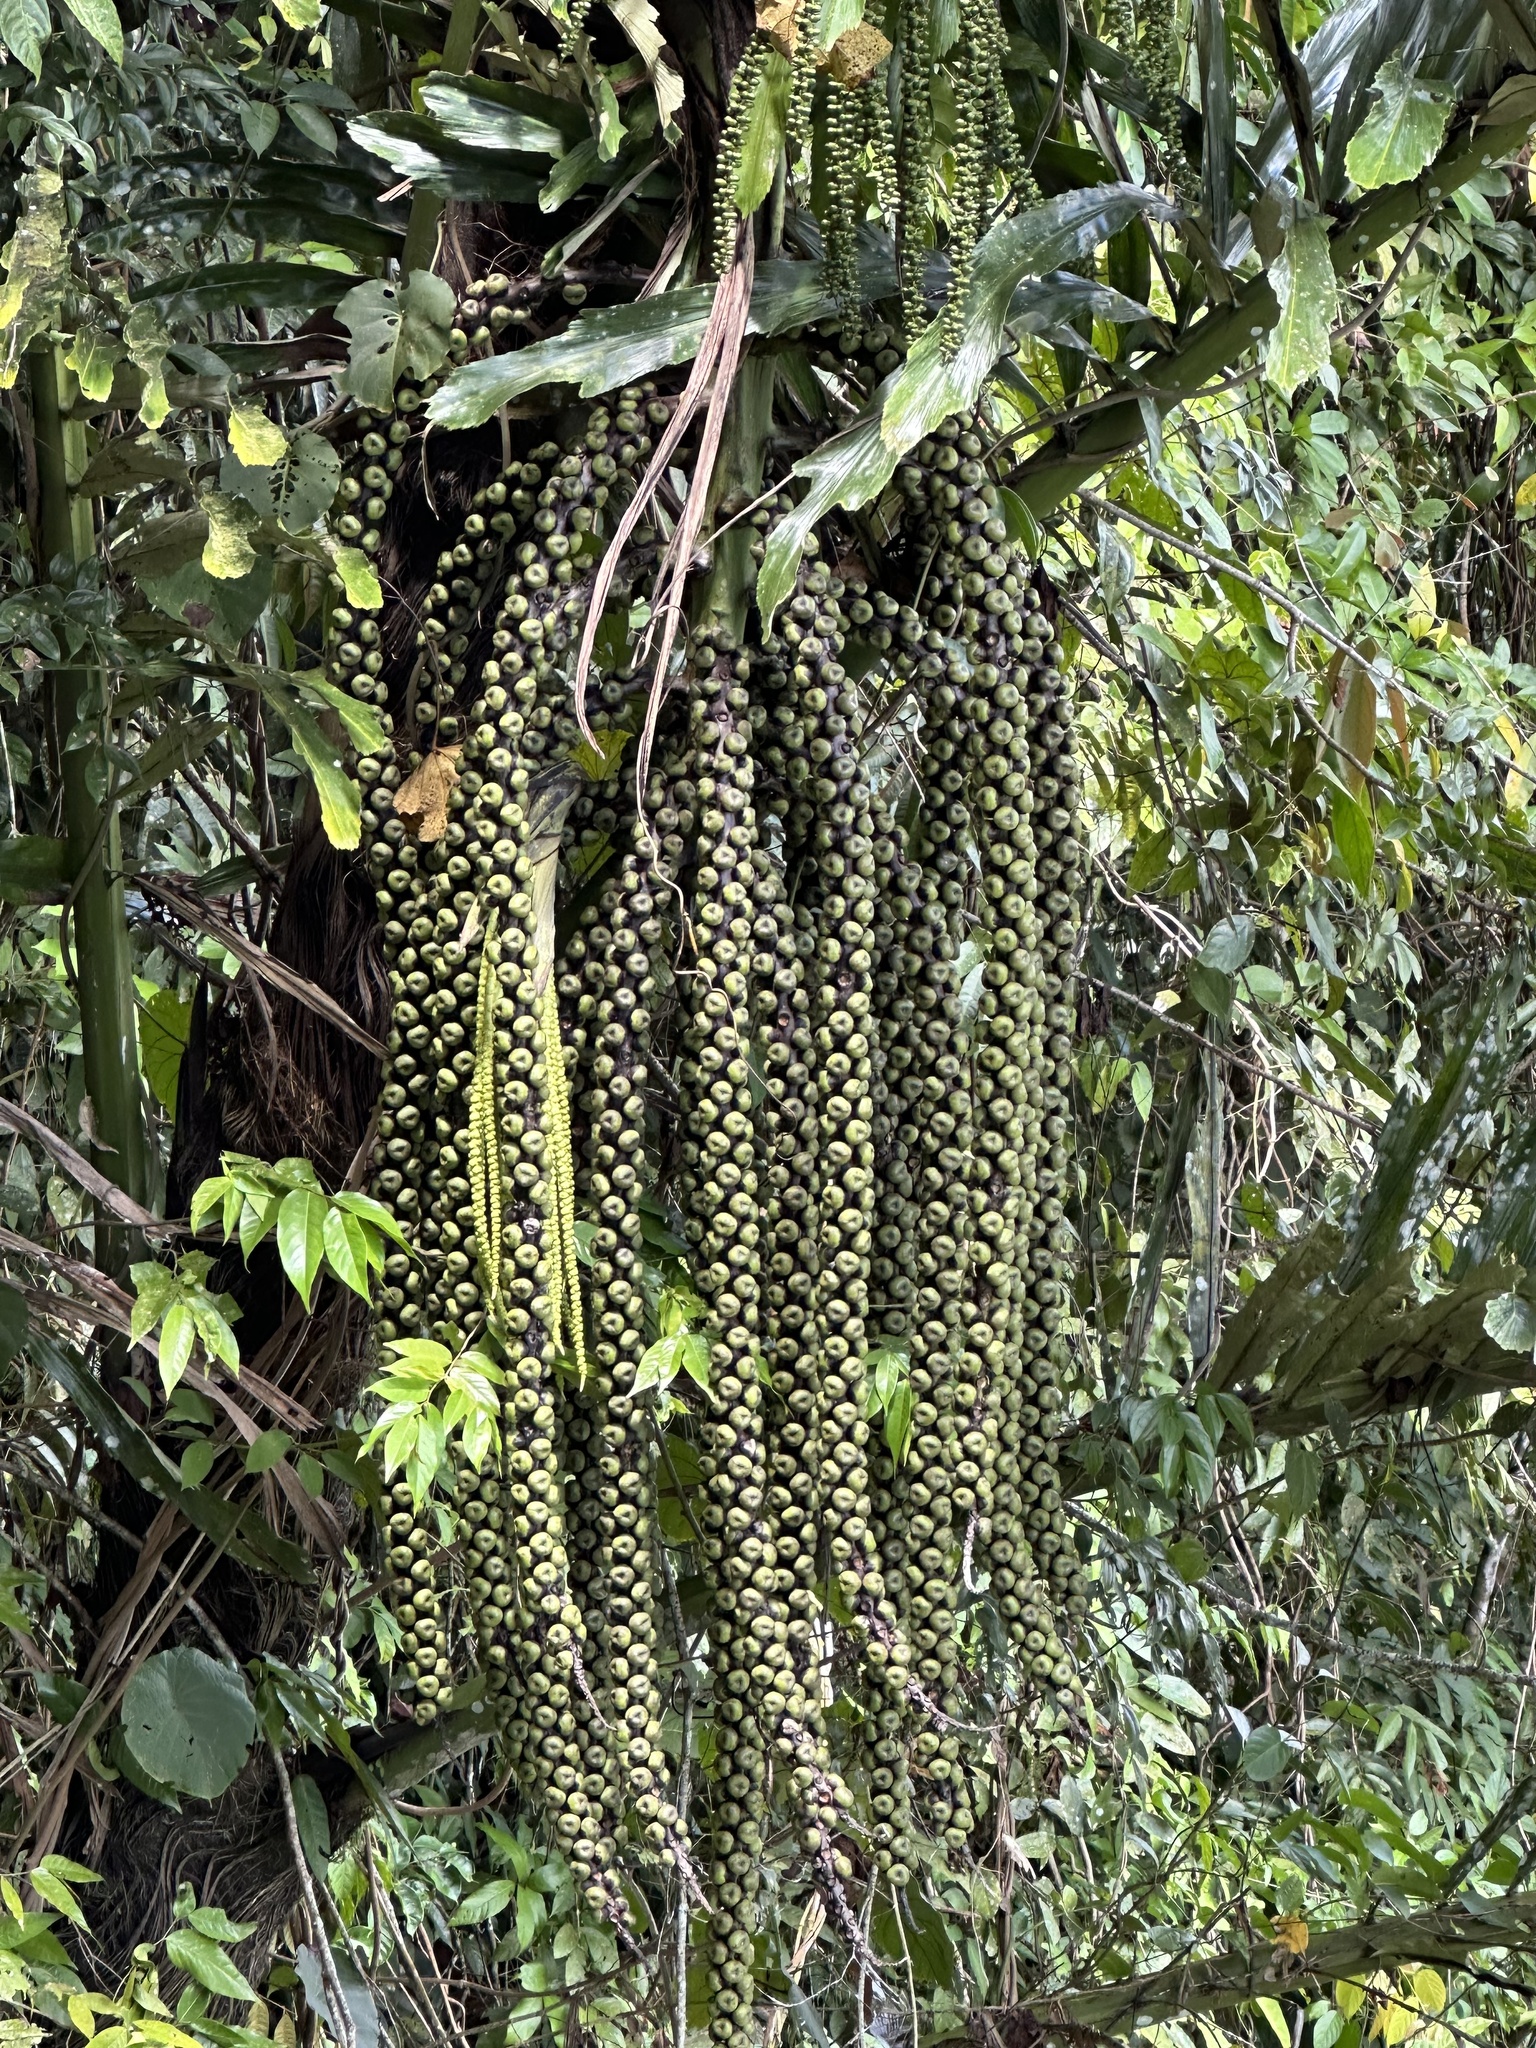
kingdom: Plantae
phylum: Tracheophyta
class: Liliopsida
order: Arecales
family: Arecaceae
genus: Arenga
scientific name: Arenga undulatifolia
